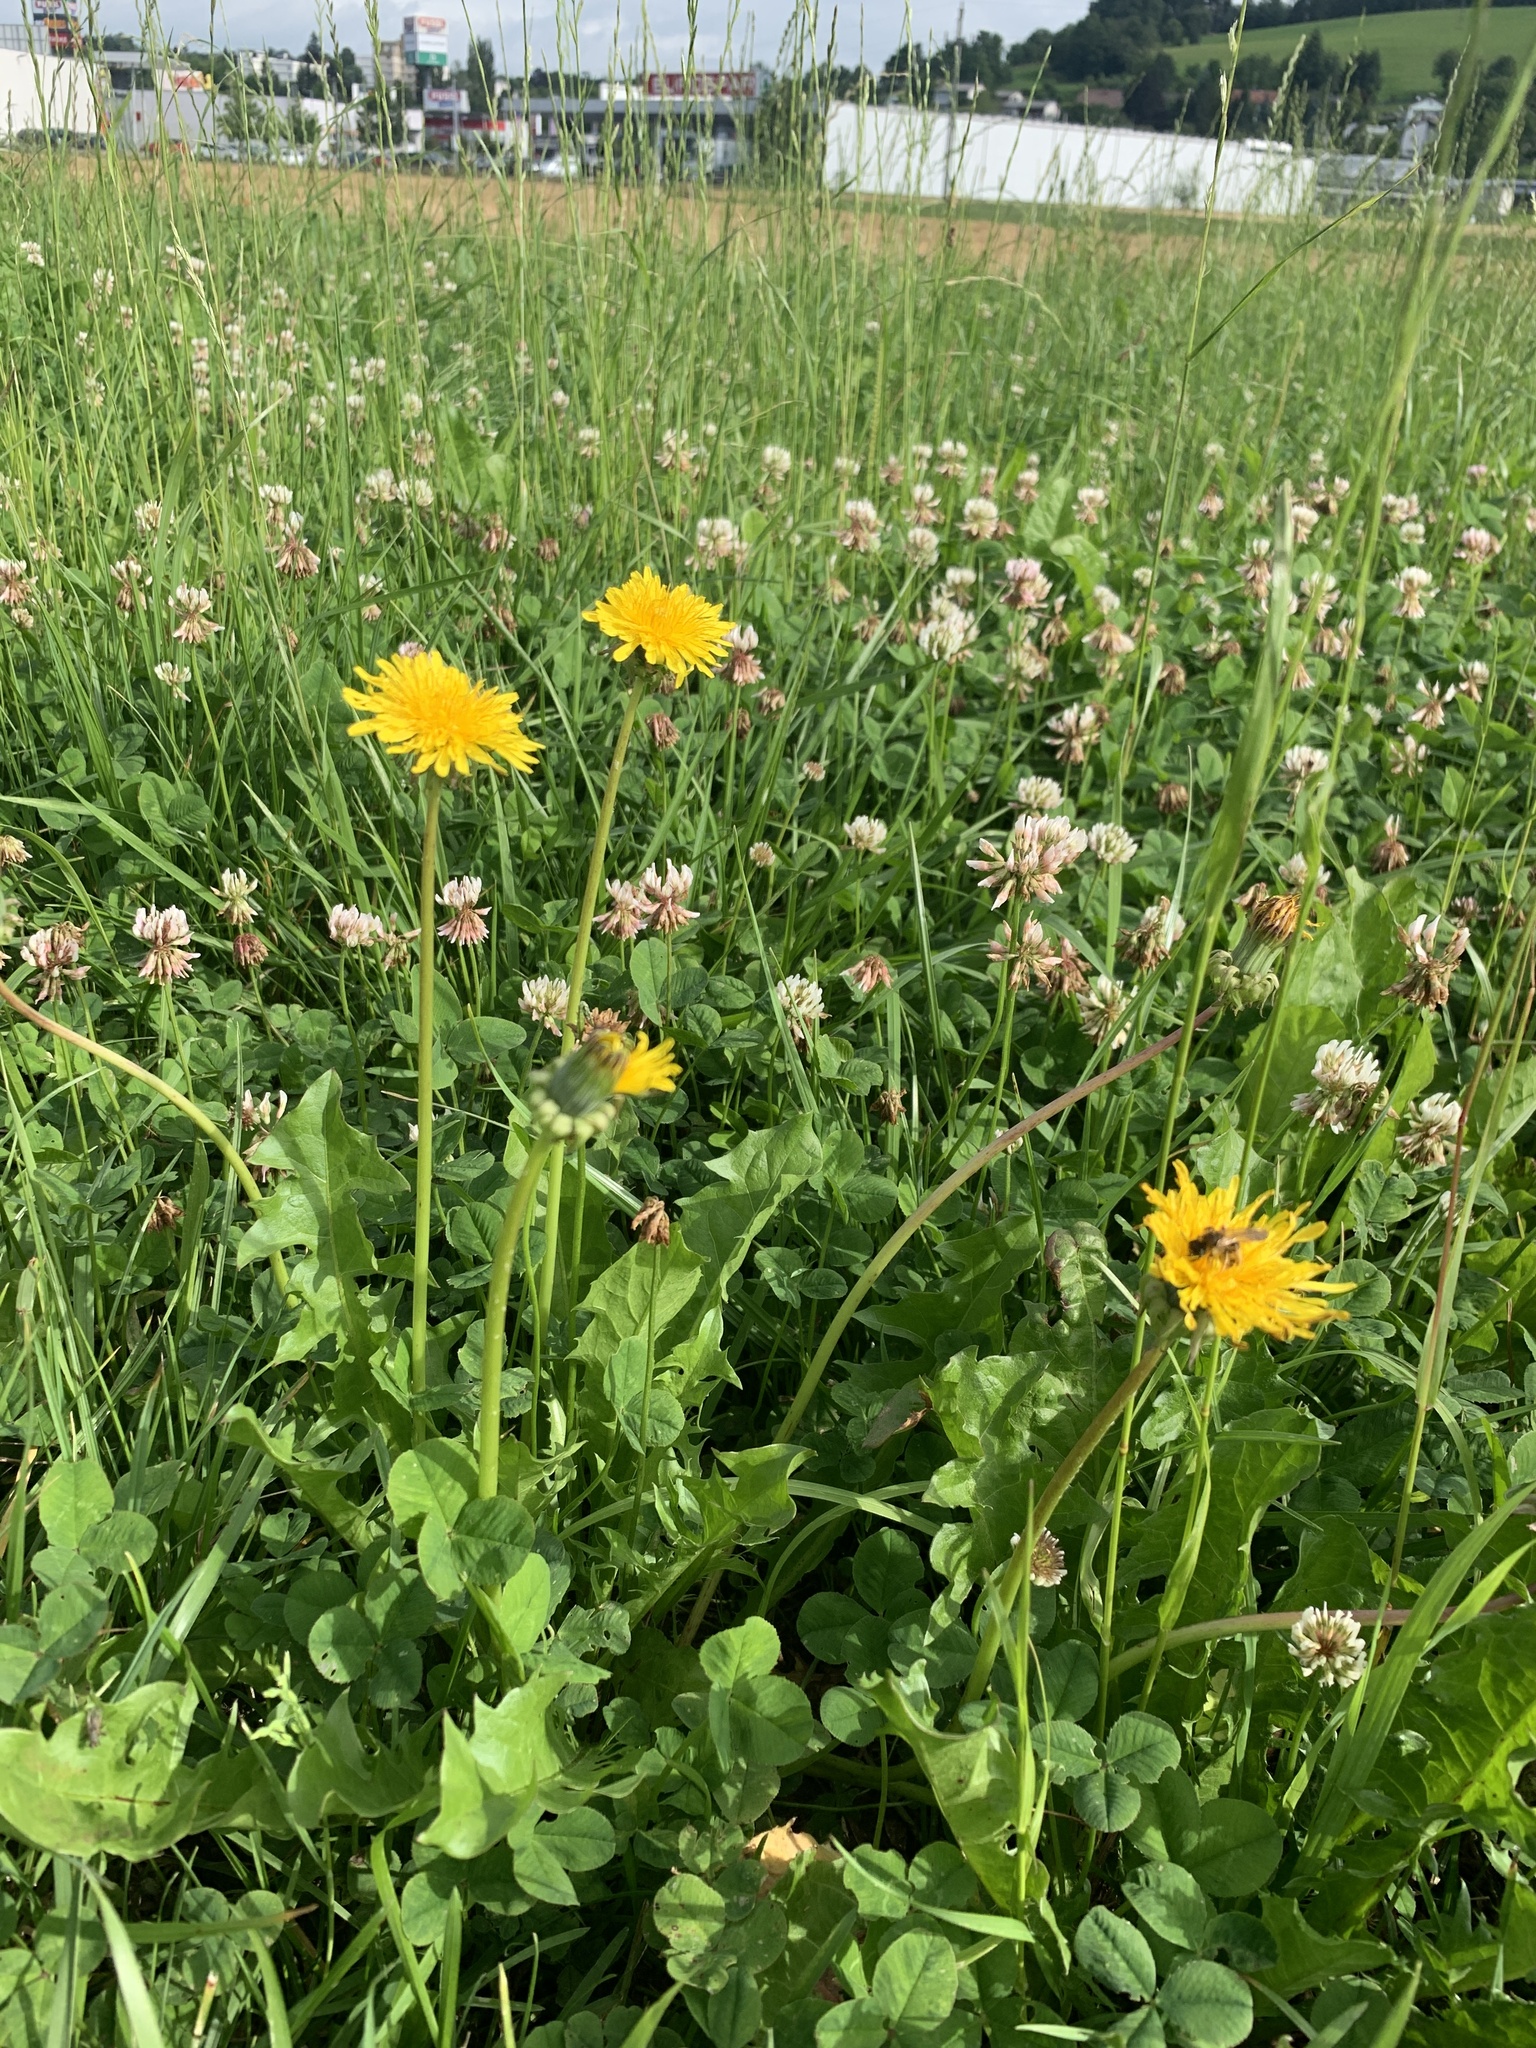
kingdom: Plantae
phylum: Tracheophyta
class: Magnoliopsida
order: Asterales
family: Asteraceae
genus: Taraxacum
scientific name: Taraxacum officinale
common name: Common dandelion
